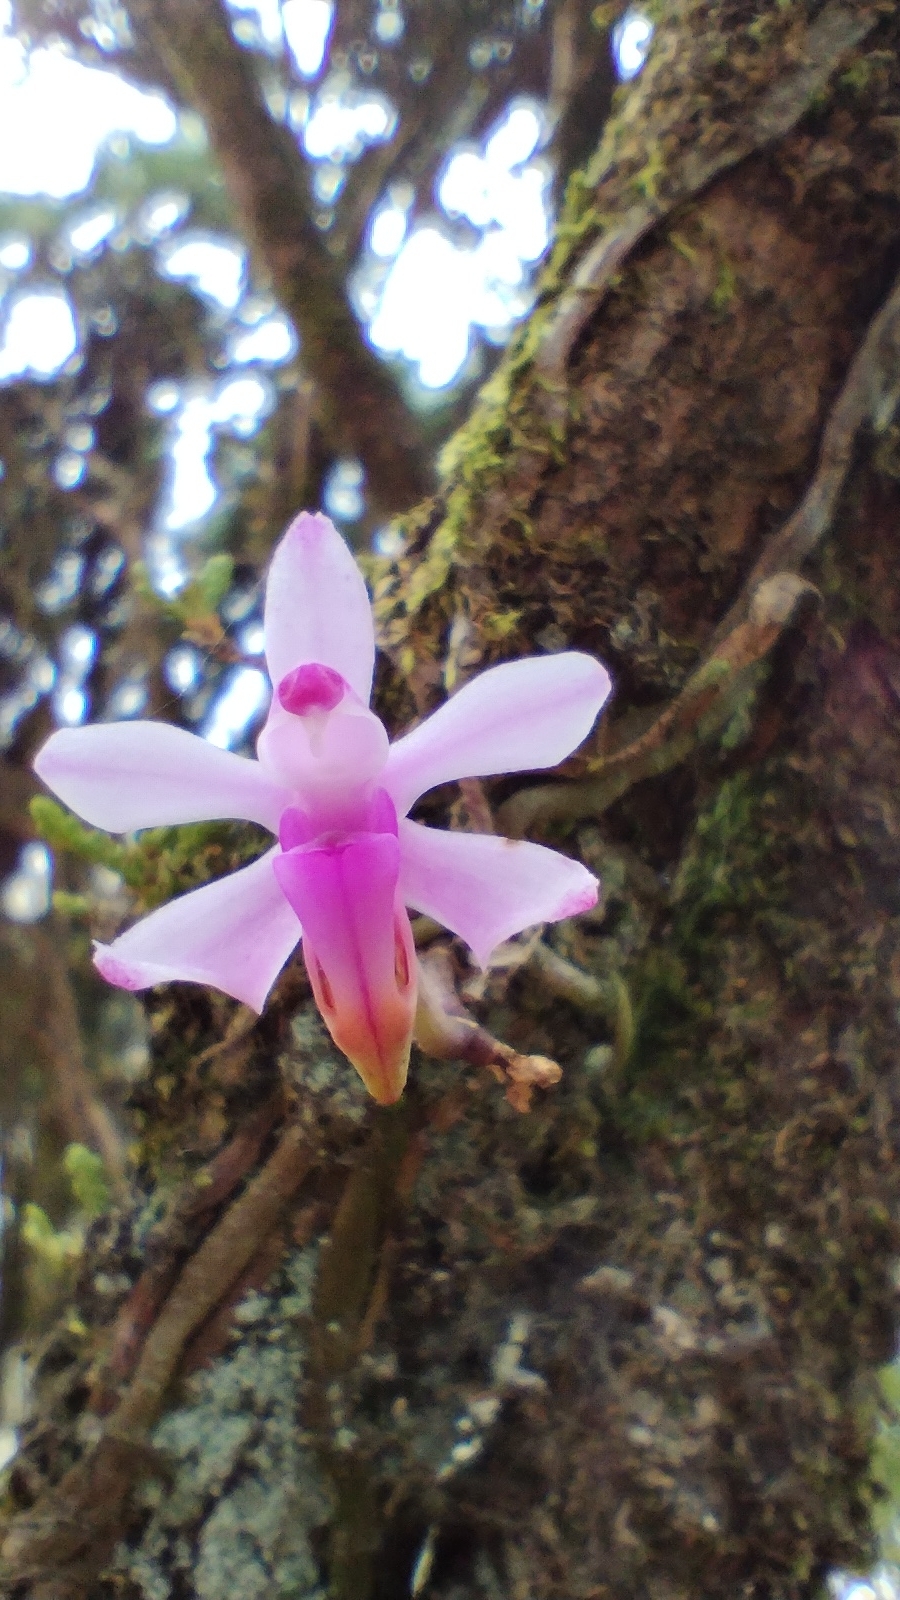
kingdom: Plantae
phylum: Tracheophyta
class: Liliopsida
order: Asparagales
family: Orchidaceae
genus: Phalaenopsis
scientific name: Phalaenopsis taenialis
